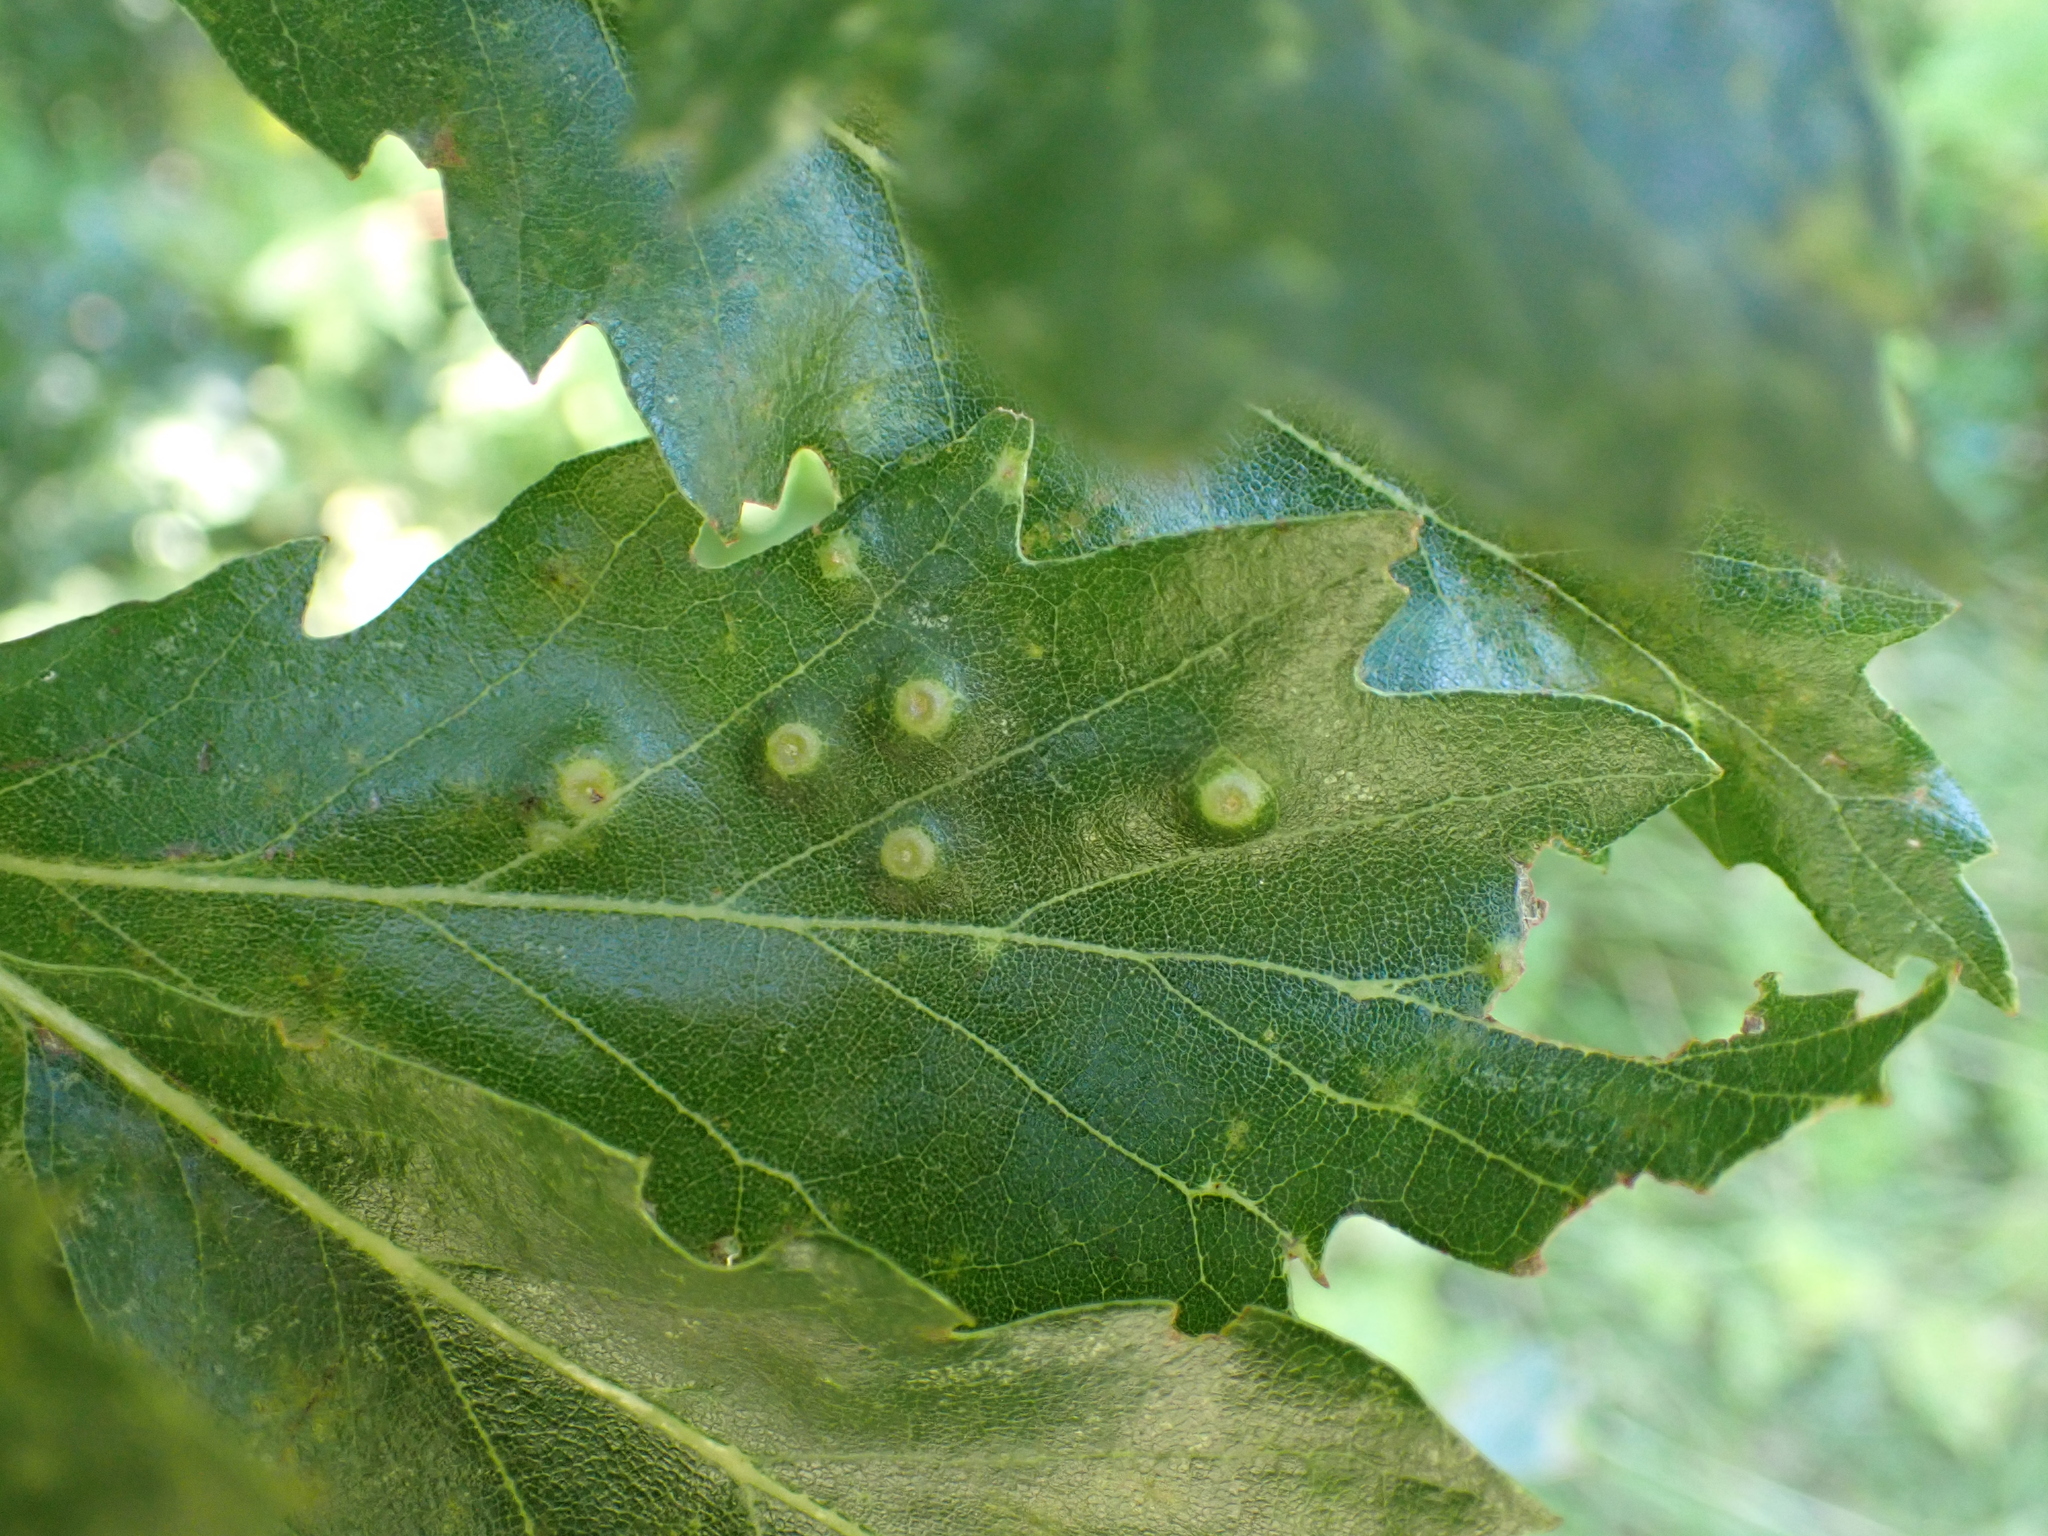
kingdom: Animalia
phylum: Arthropoda
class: Insecta
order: Diptera
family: Cecidomyiidae
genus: Dryomyia
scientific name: Dryomyia circinans
